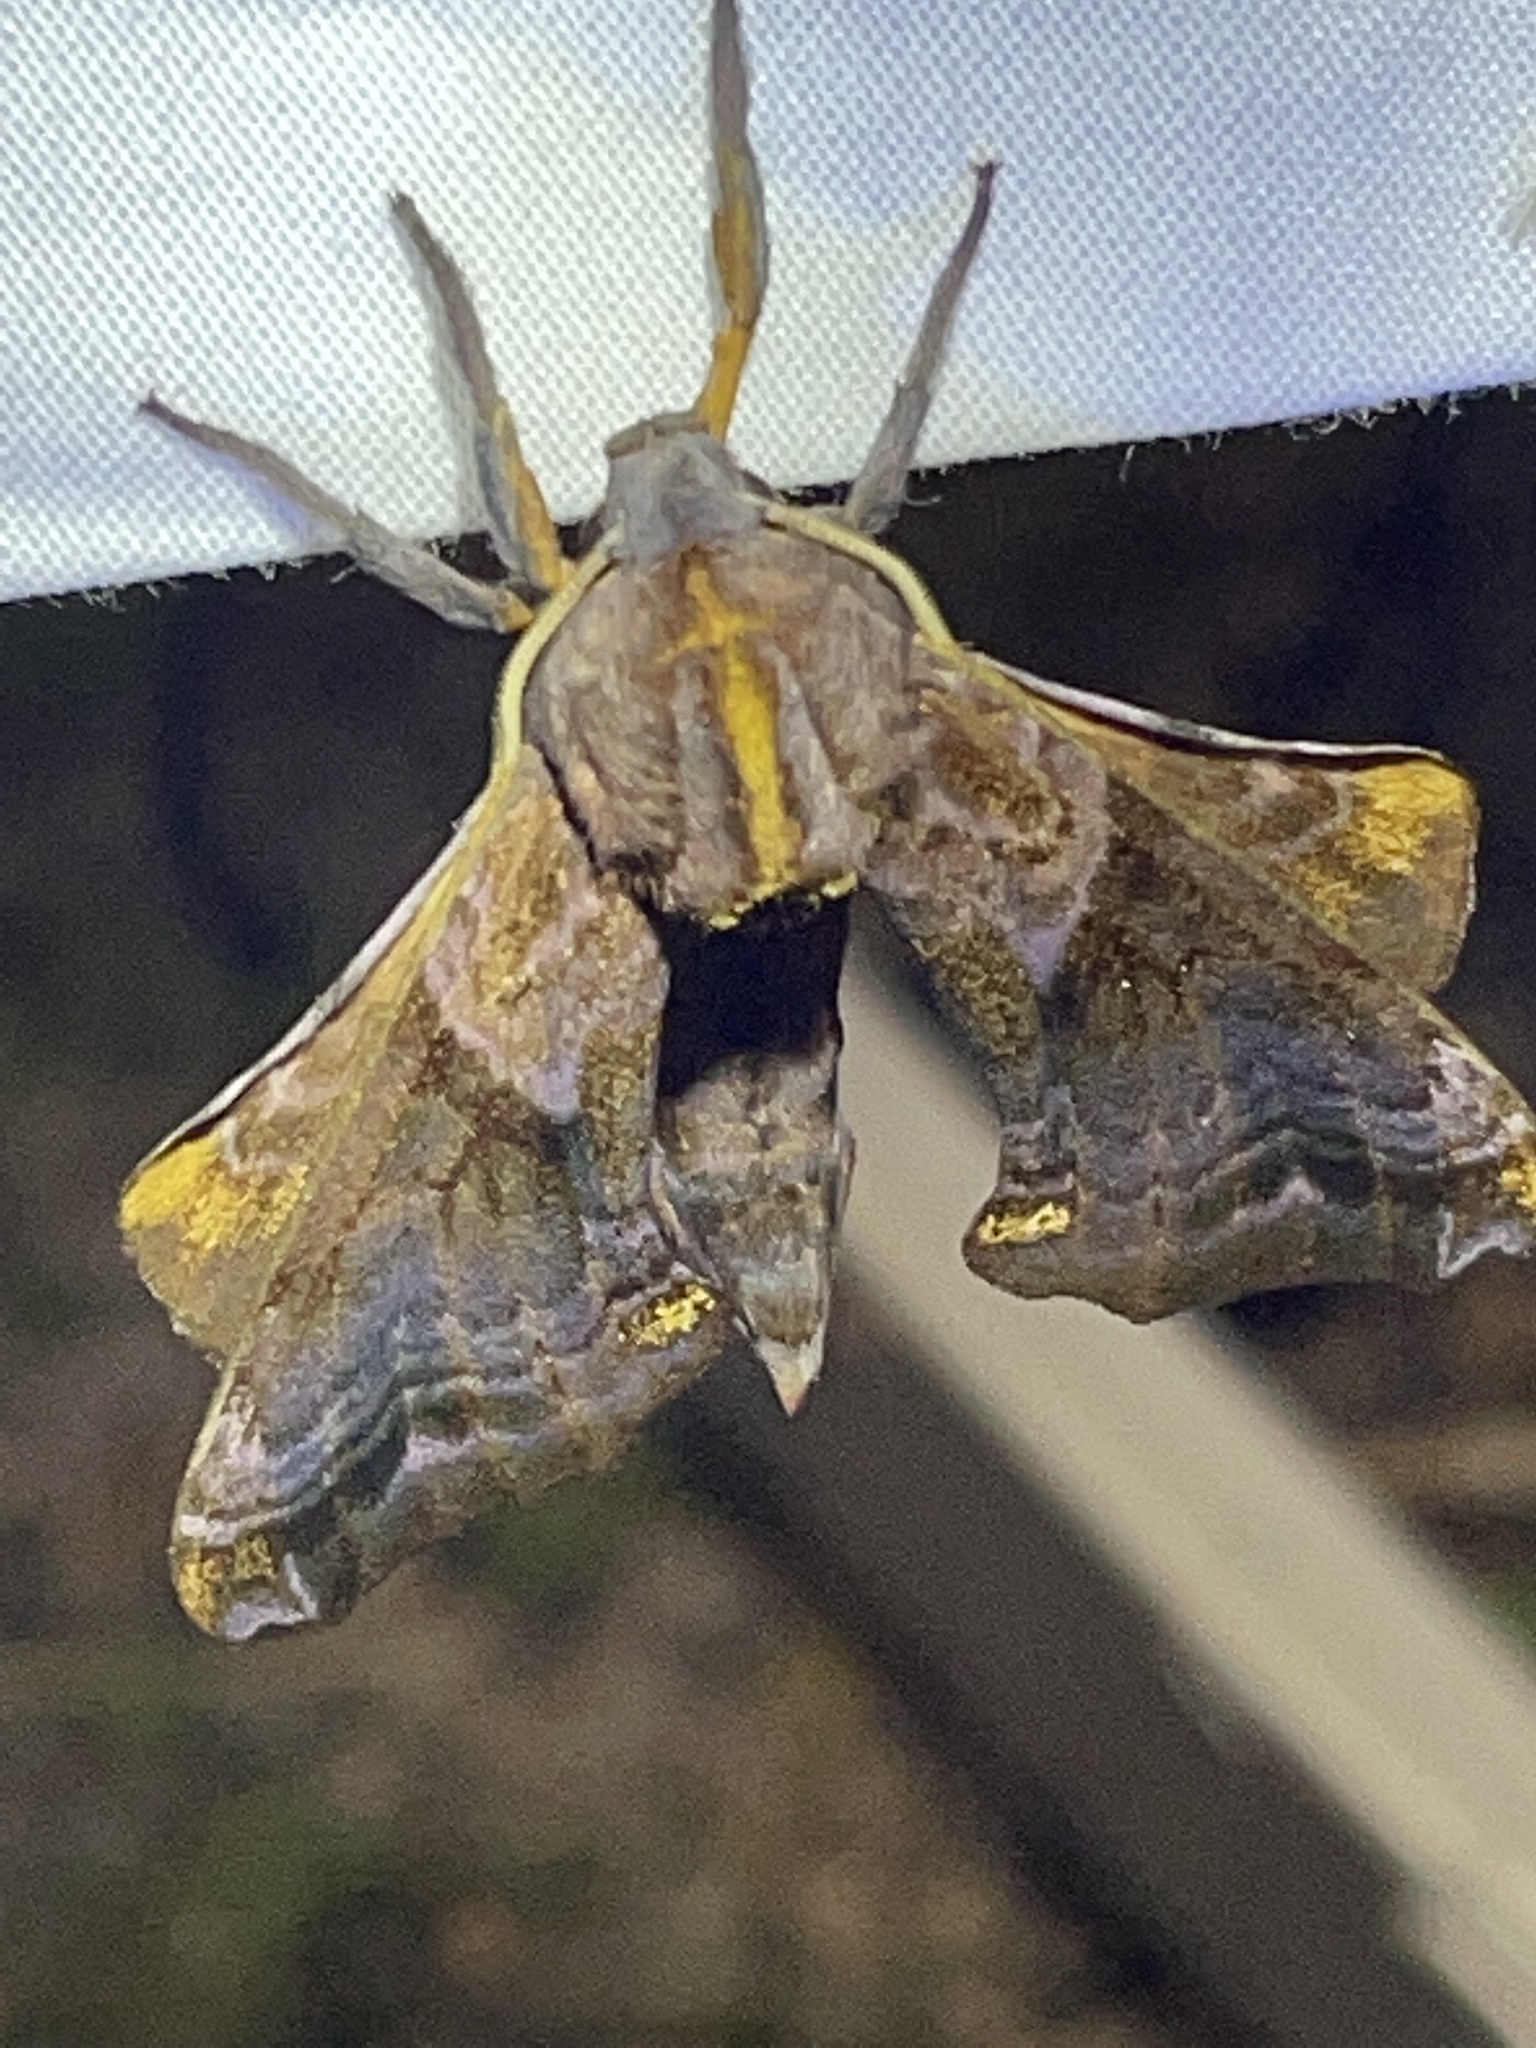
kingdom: Animalia
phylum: Arthropoda
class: Insecta
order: Lepidoptera
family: Sphingidae
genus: Paonias
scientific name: Paonias myops
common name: Small-eyed sphinx
